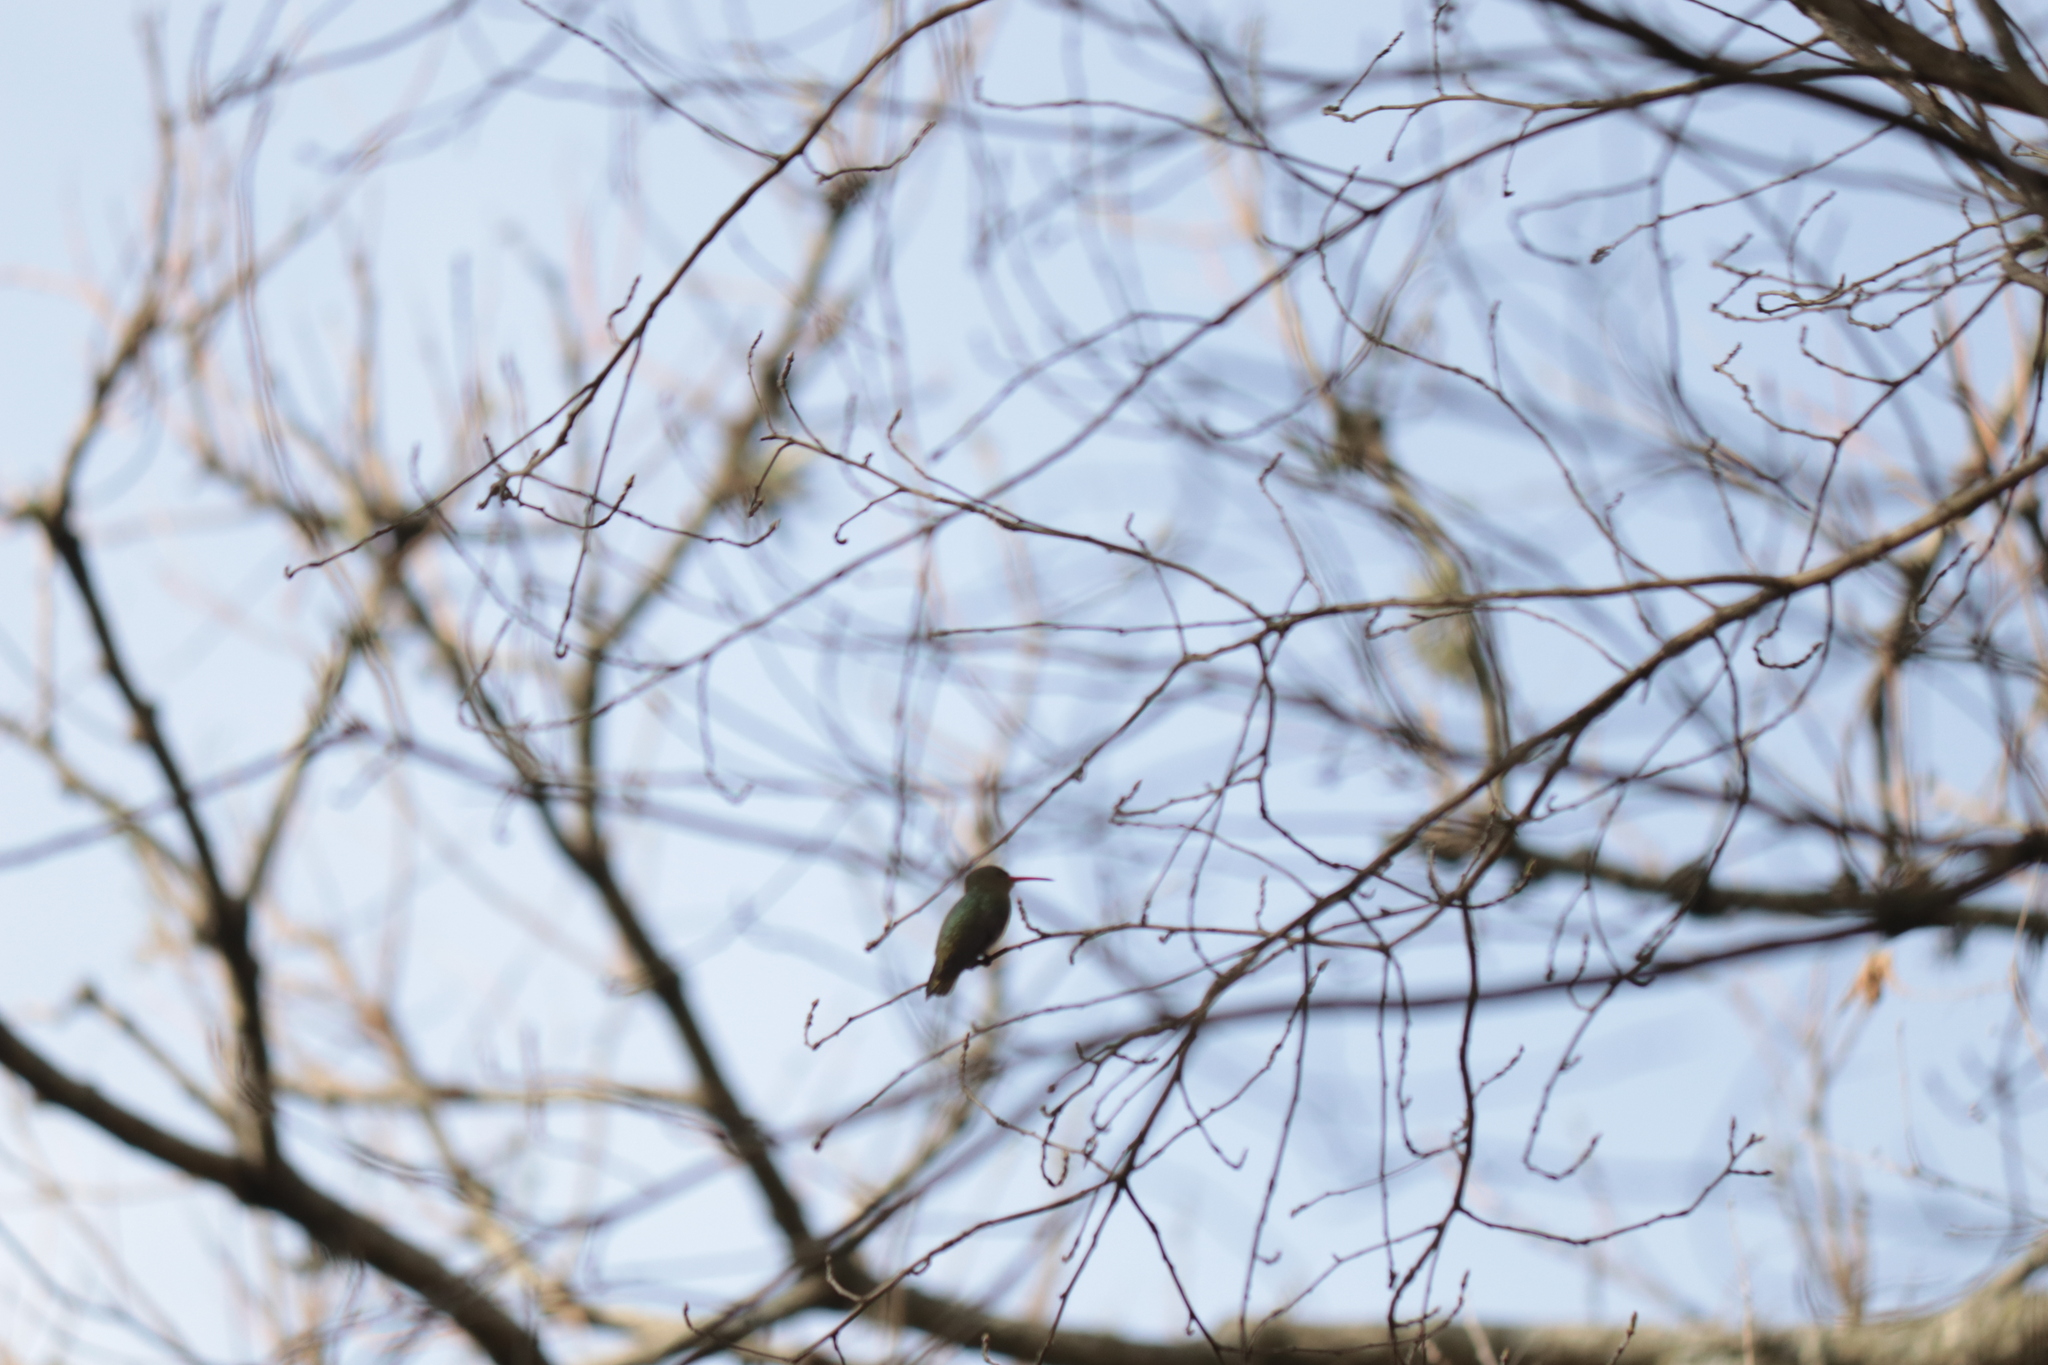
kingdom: Animalia
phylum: Chordata
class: Aves
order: Apodiformes
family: Trochilidae
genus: Hylocharis
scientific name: Hylocharis chrysura
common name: Gilded sapphire
